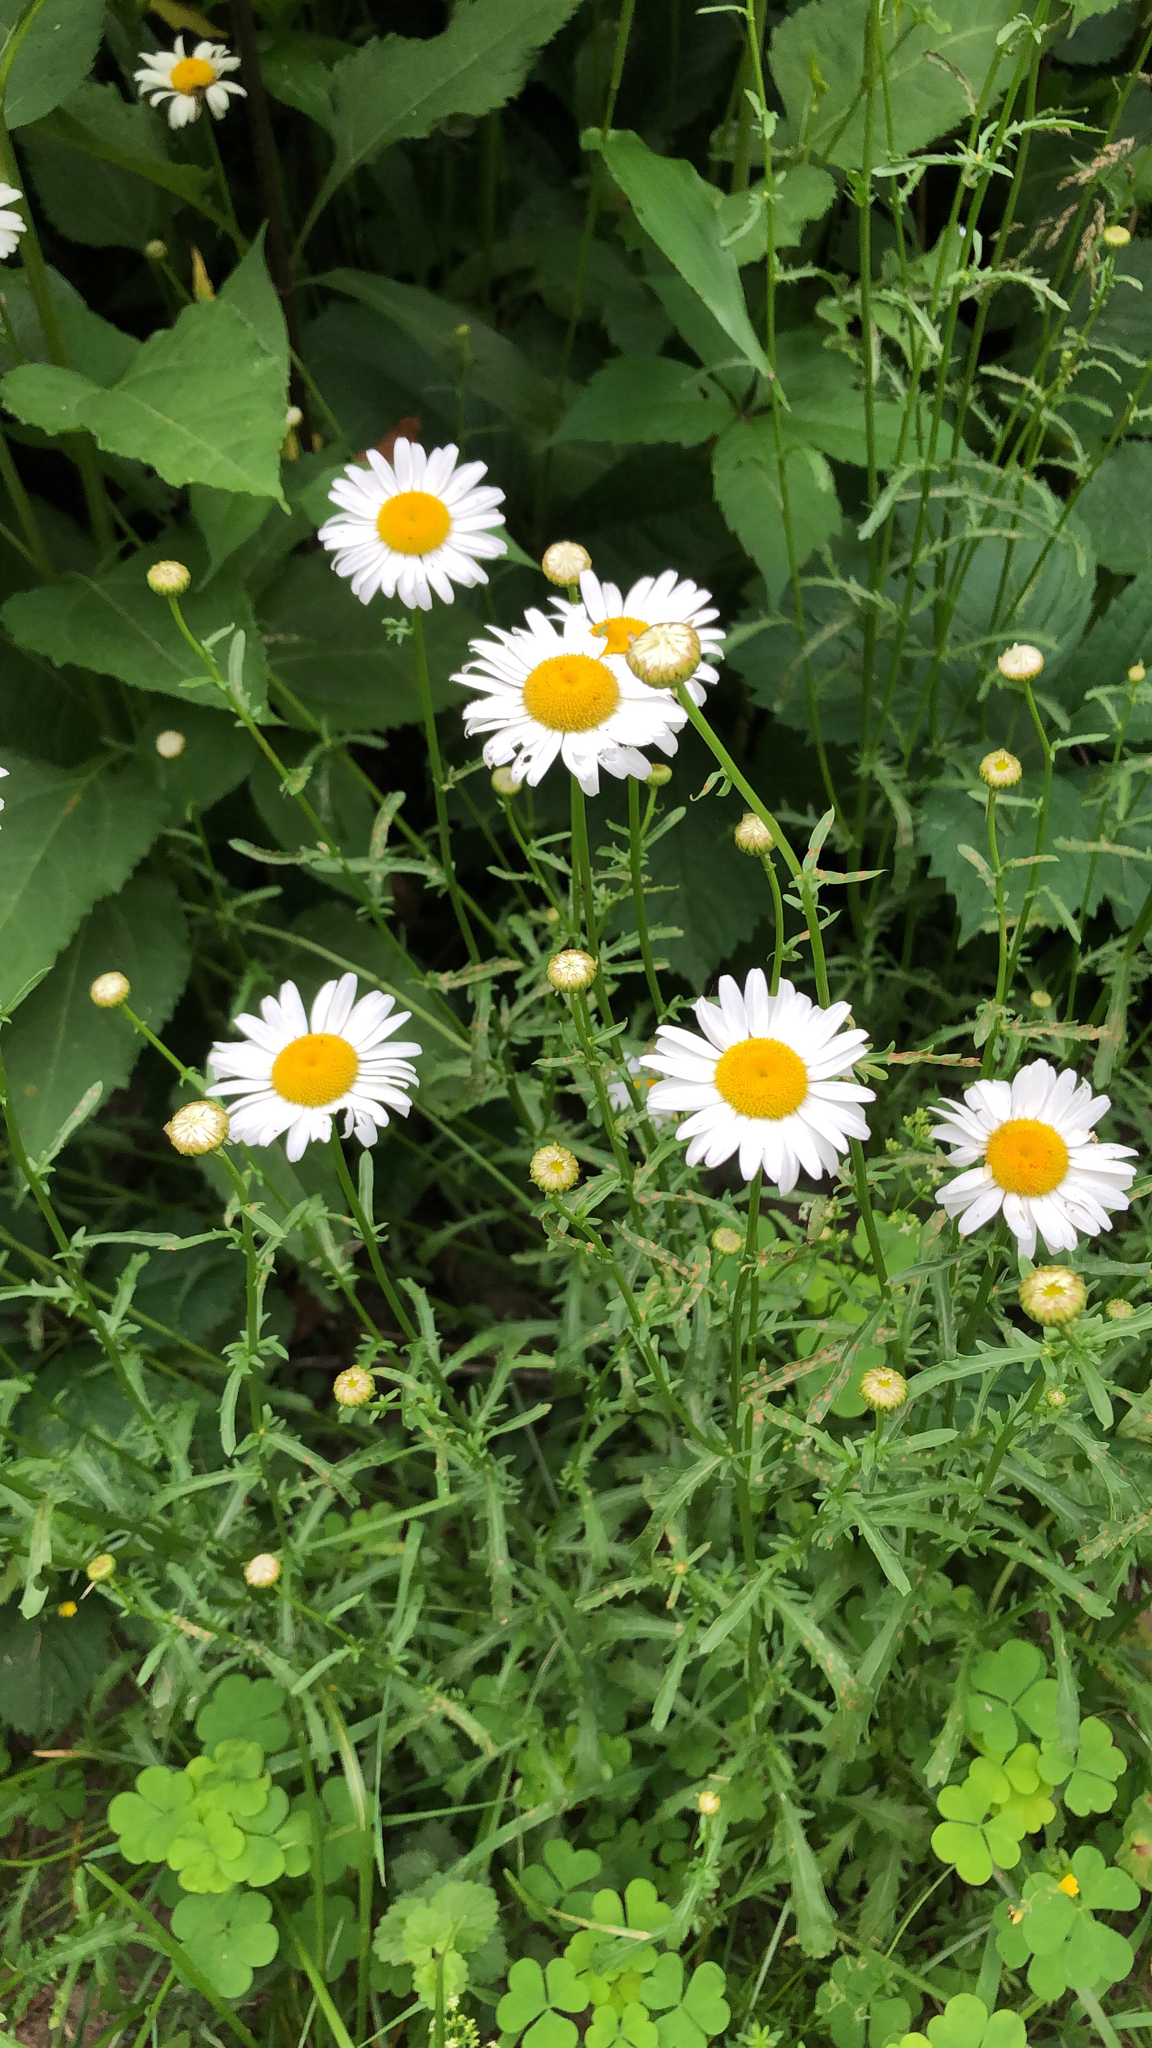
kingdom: Plantae
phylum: Tracheophyta
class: Magnoliopsida
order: Asterales
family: Asteraceae
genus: Leucanthemum
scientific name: Leucanthemum vulgare
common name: Oxeye daisy
